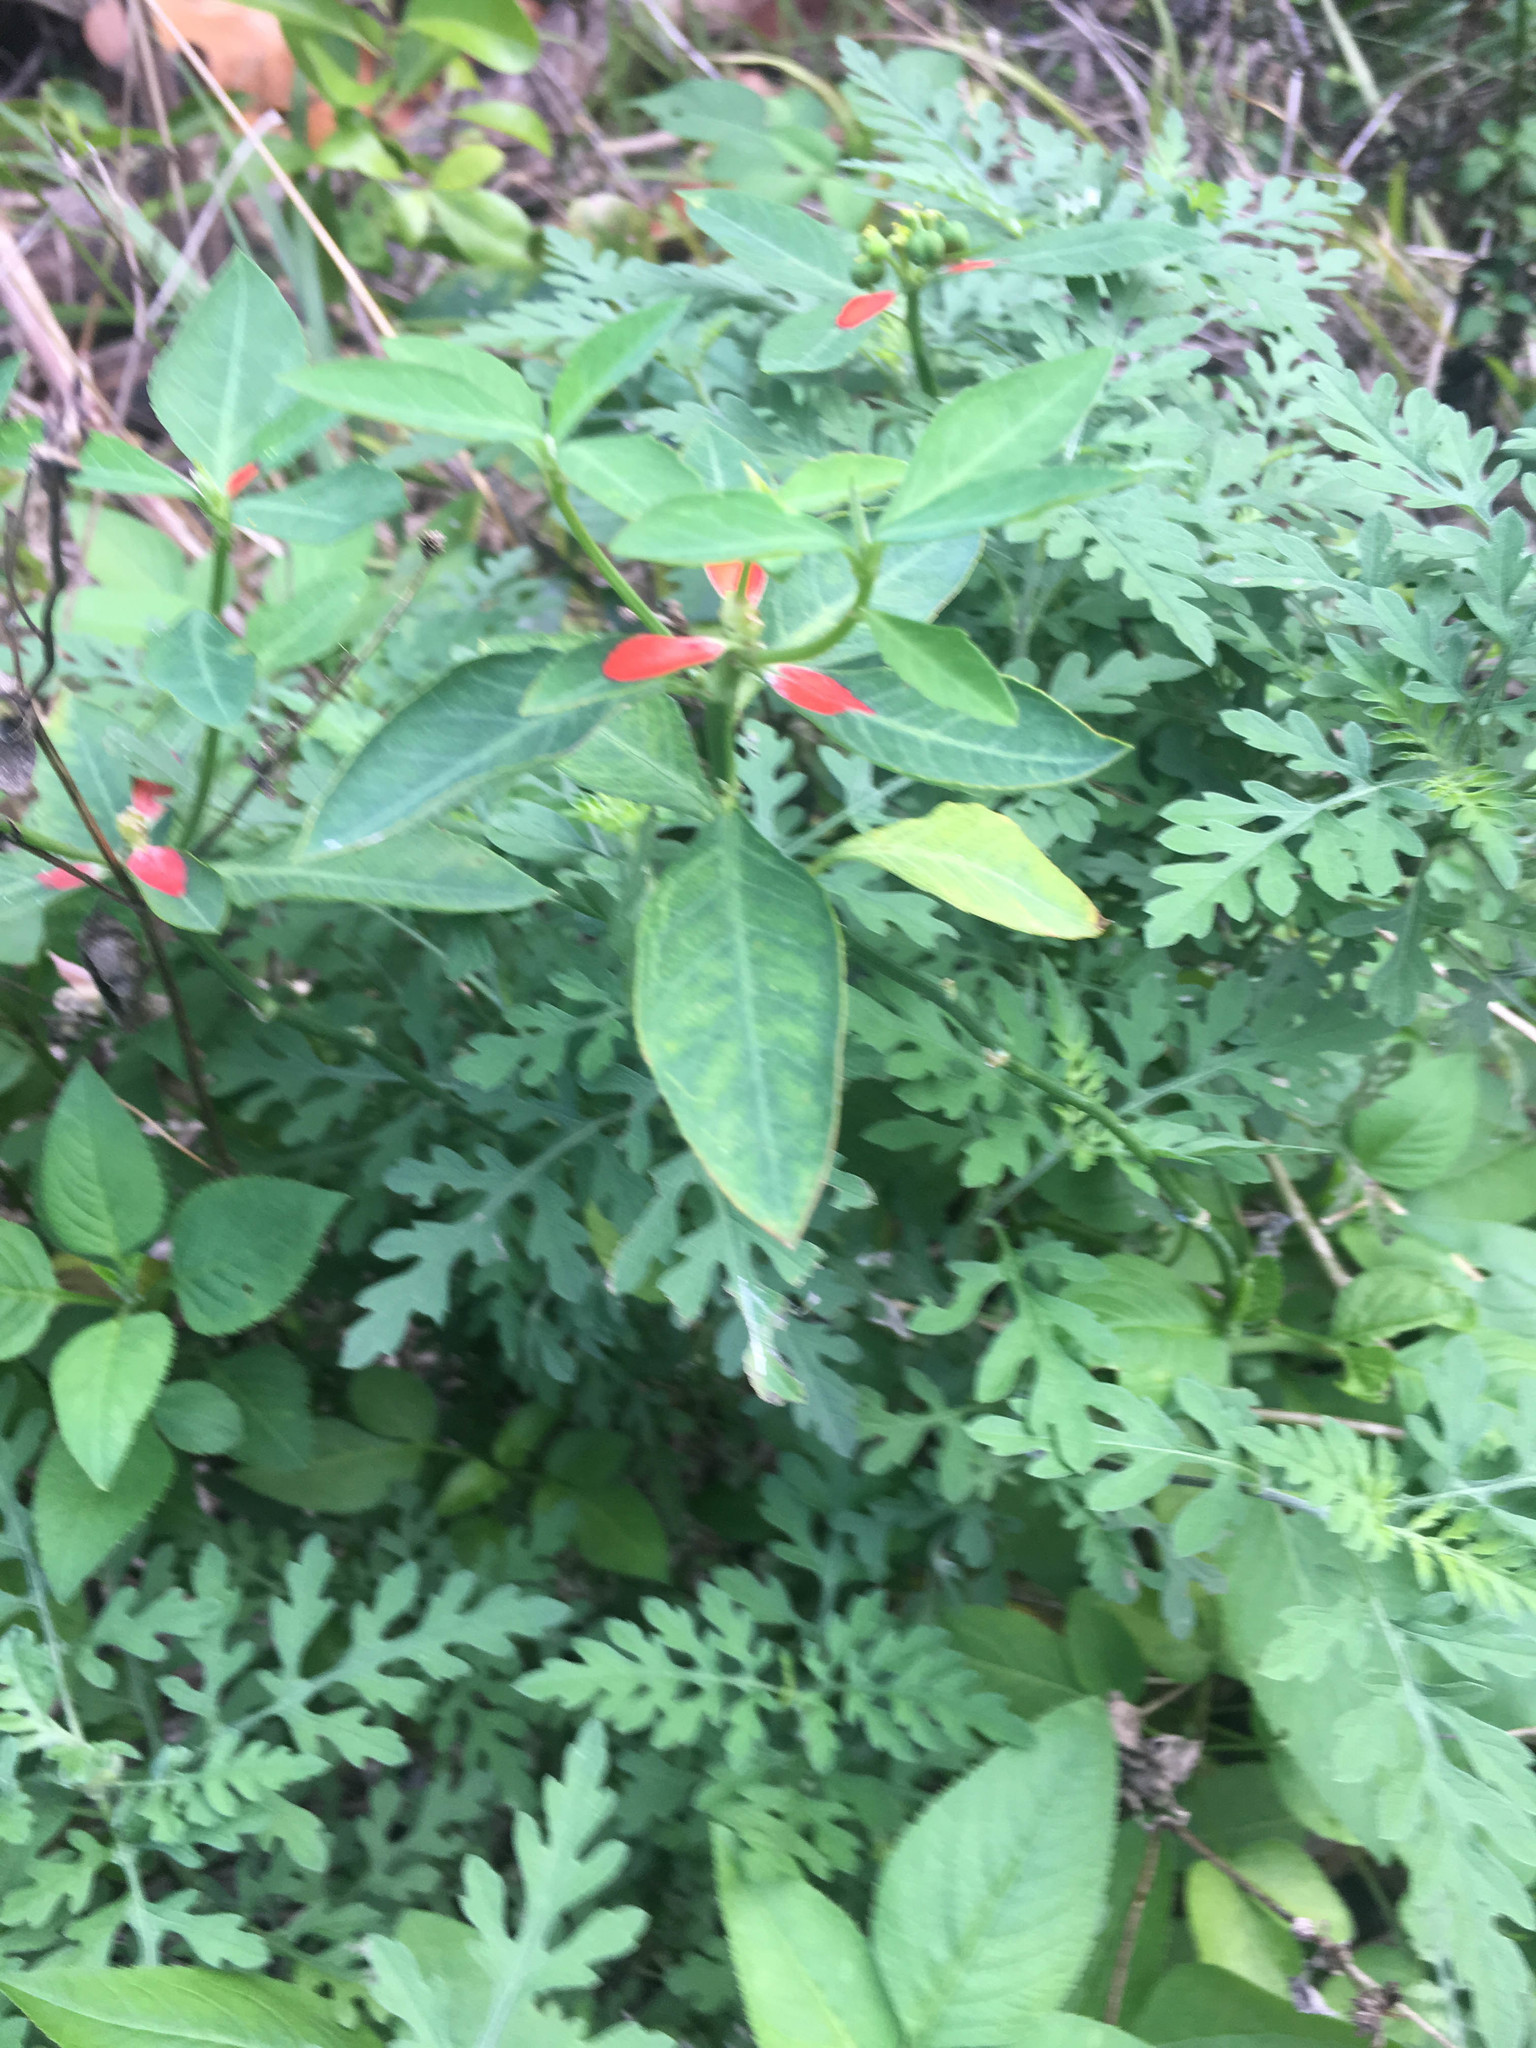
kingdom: Plantae
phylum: Tracheophyta
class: Magnoliopsida
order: Asterales
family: Asteraceae
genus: Ambrosia
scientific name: Ambrosia artemisiifolia
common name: Annual ragweed
